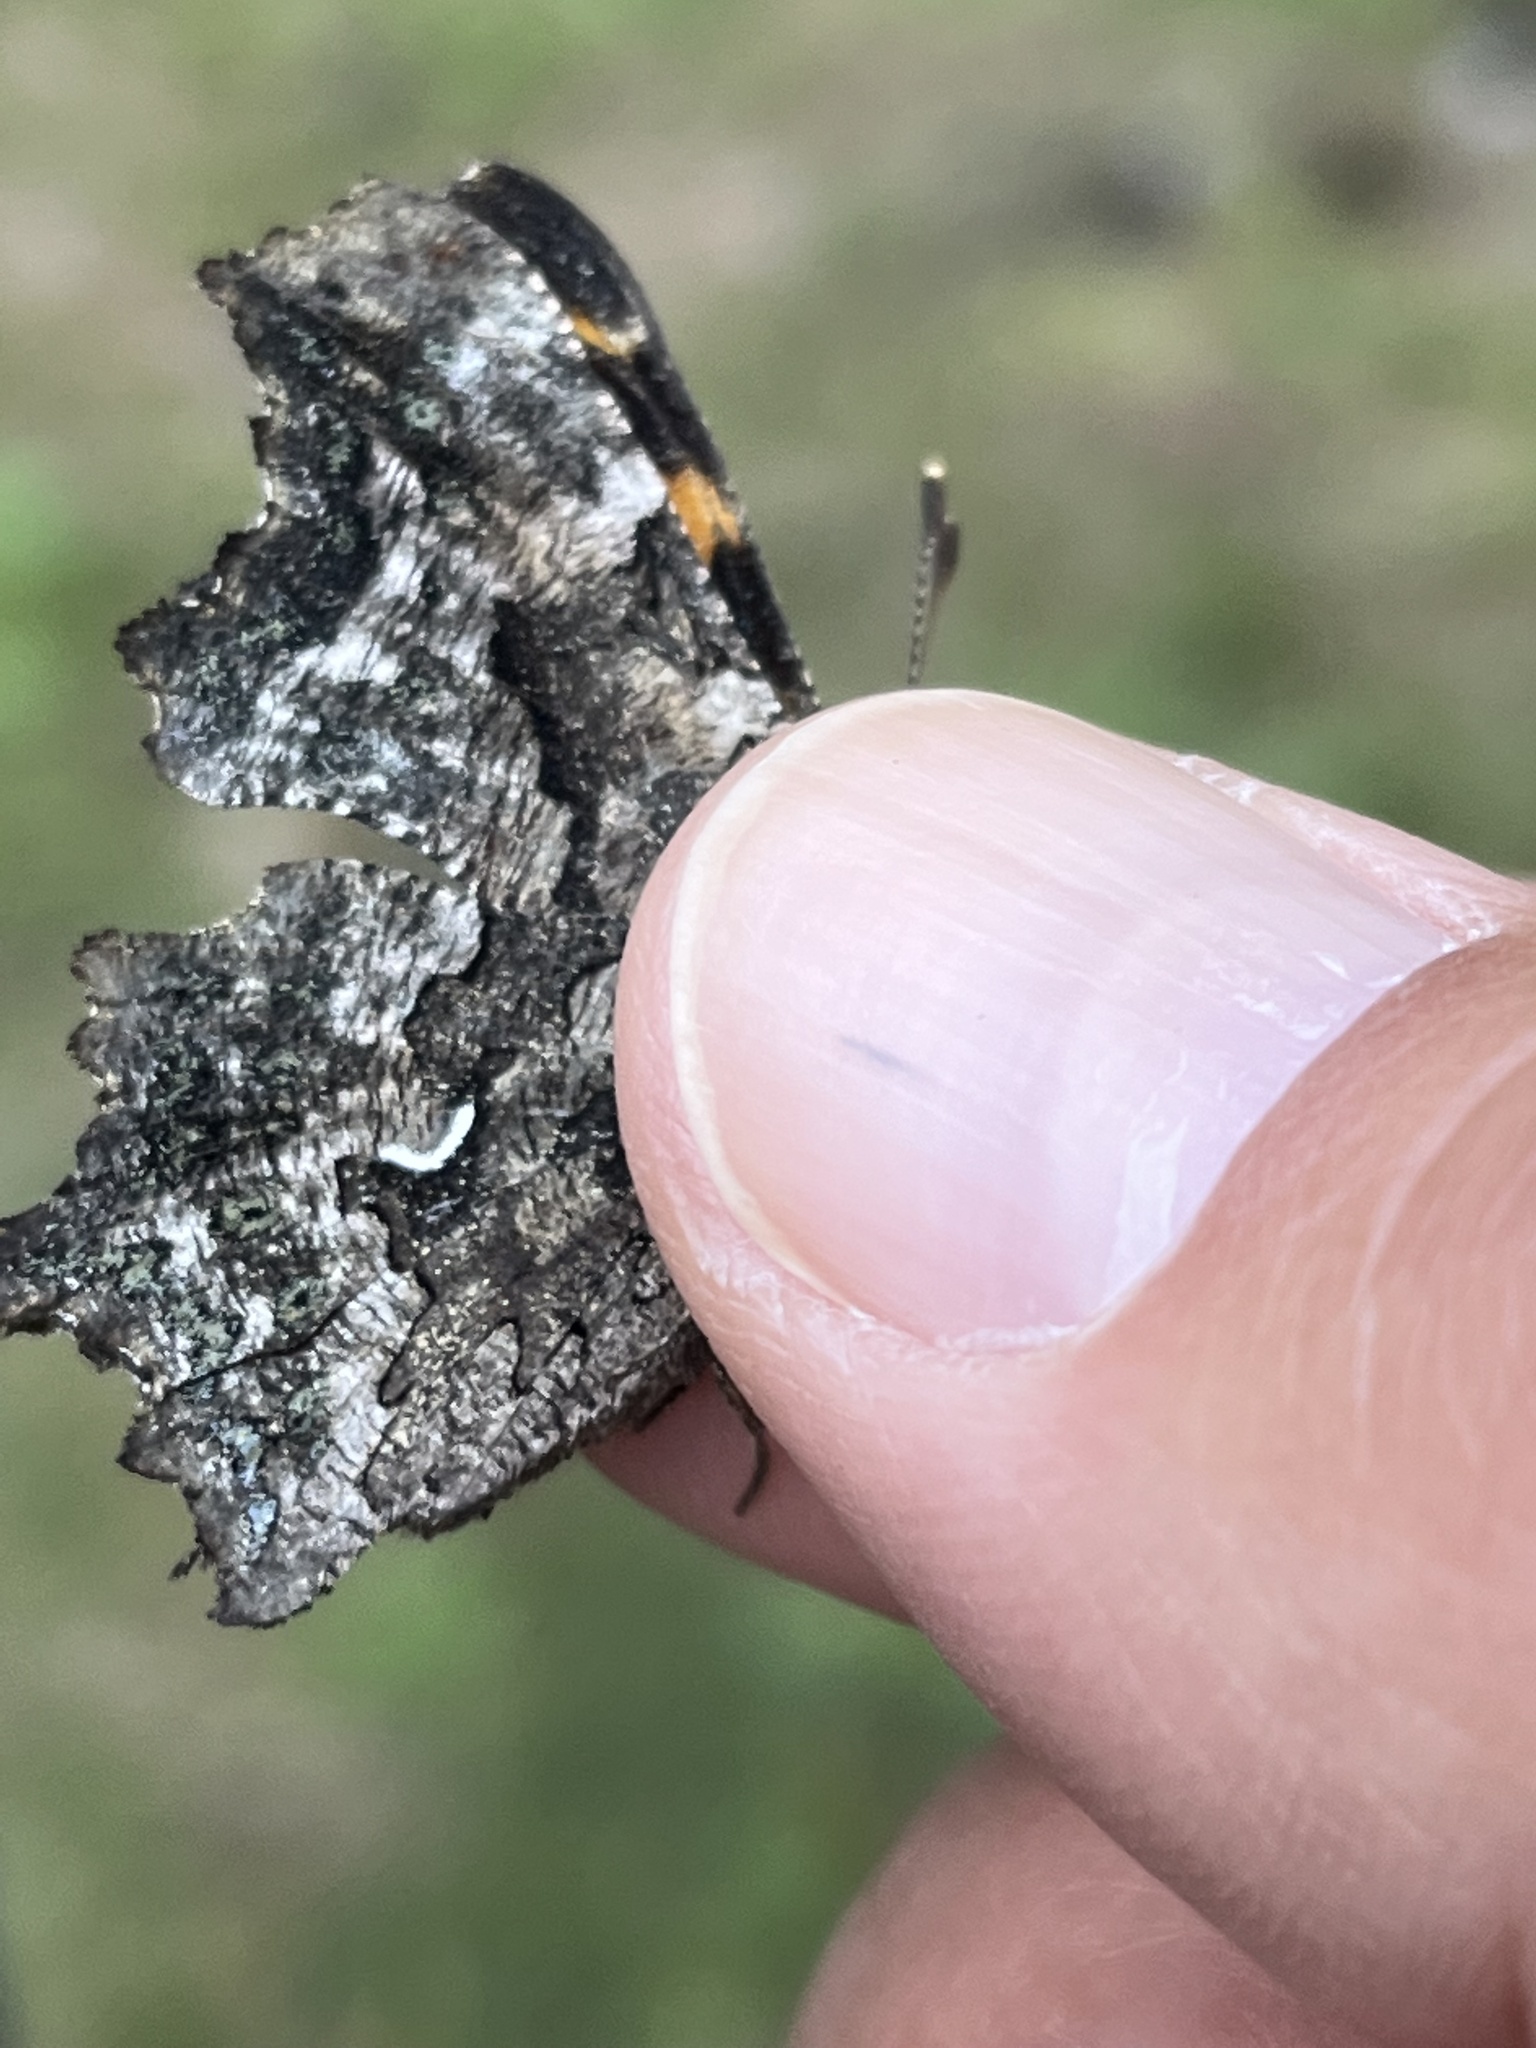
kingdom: Animalia
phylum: Arthropoda
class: Insecta
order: Lepidoptera
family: Nymphalidae
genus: Polygonia
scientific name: Polygonia faunus
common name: Green comma
